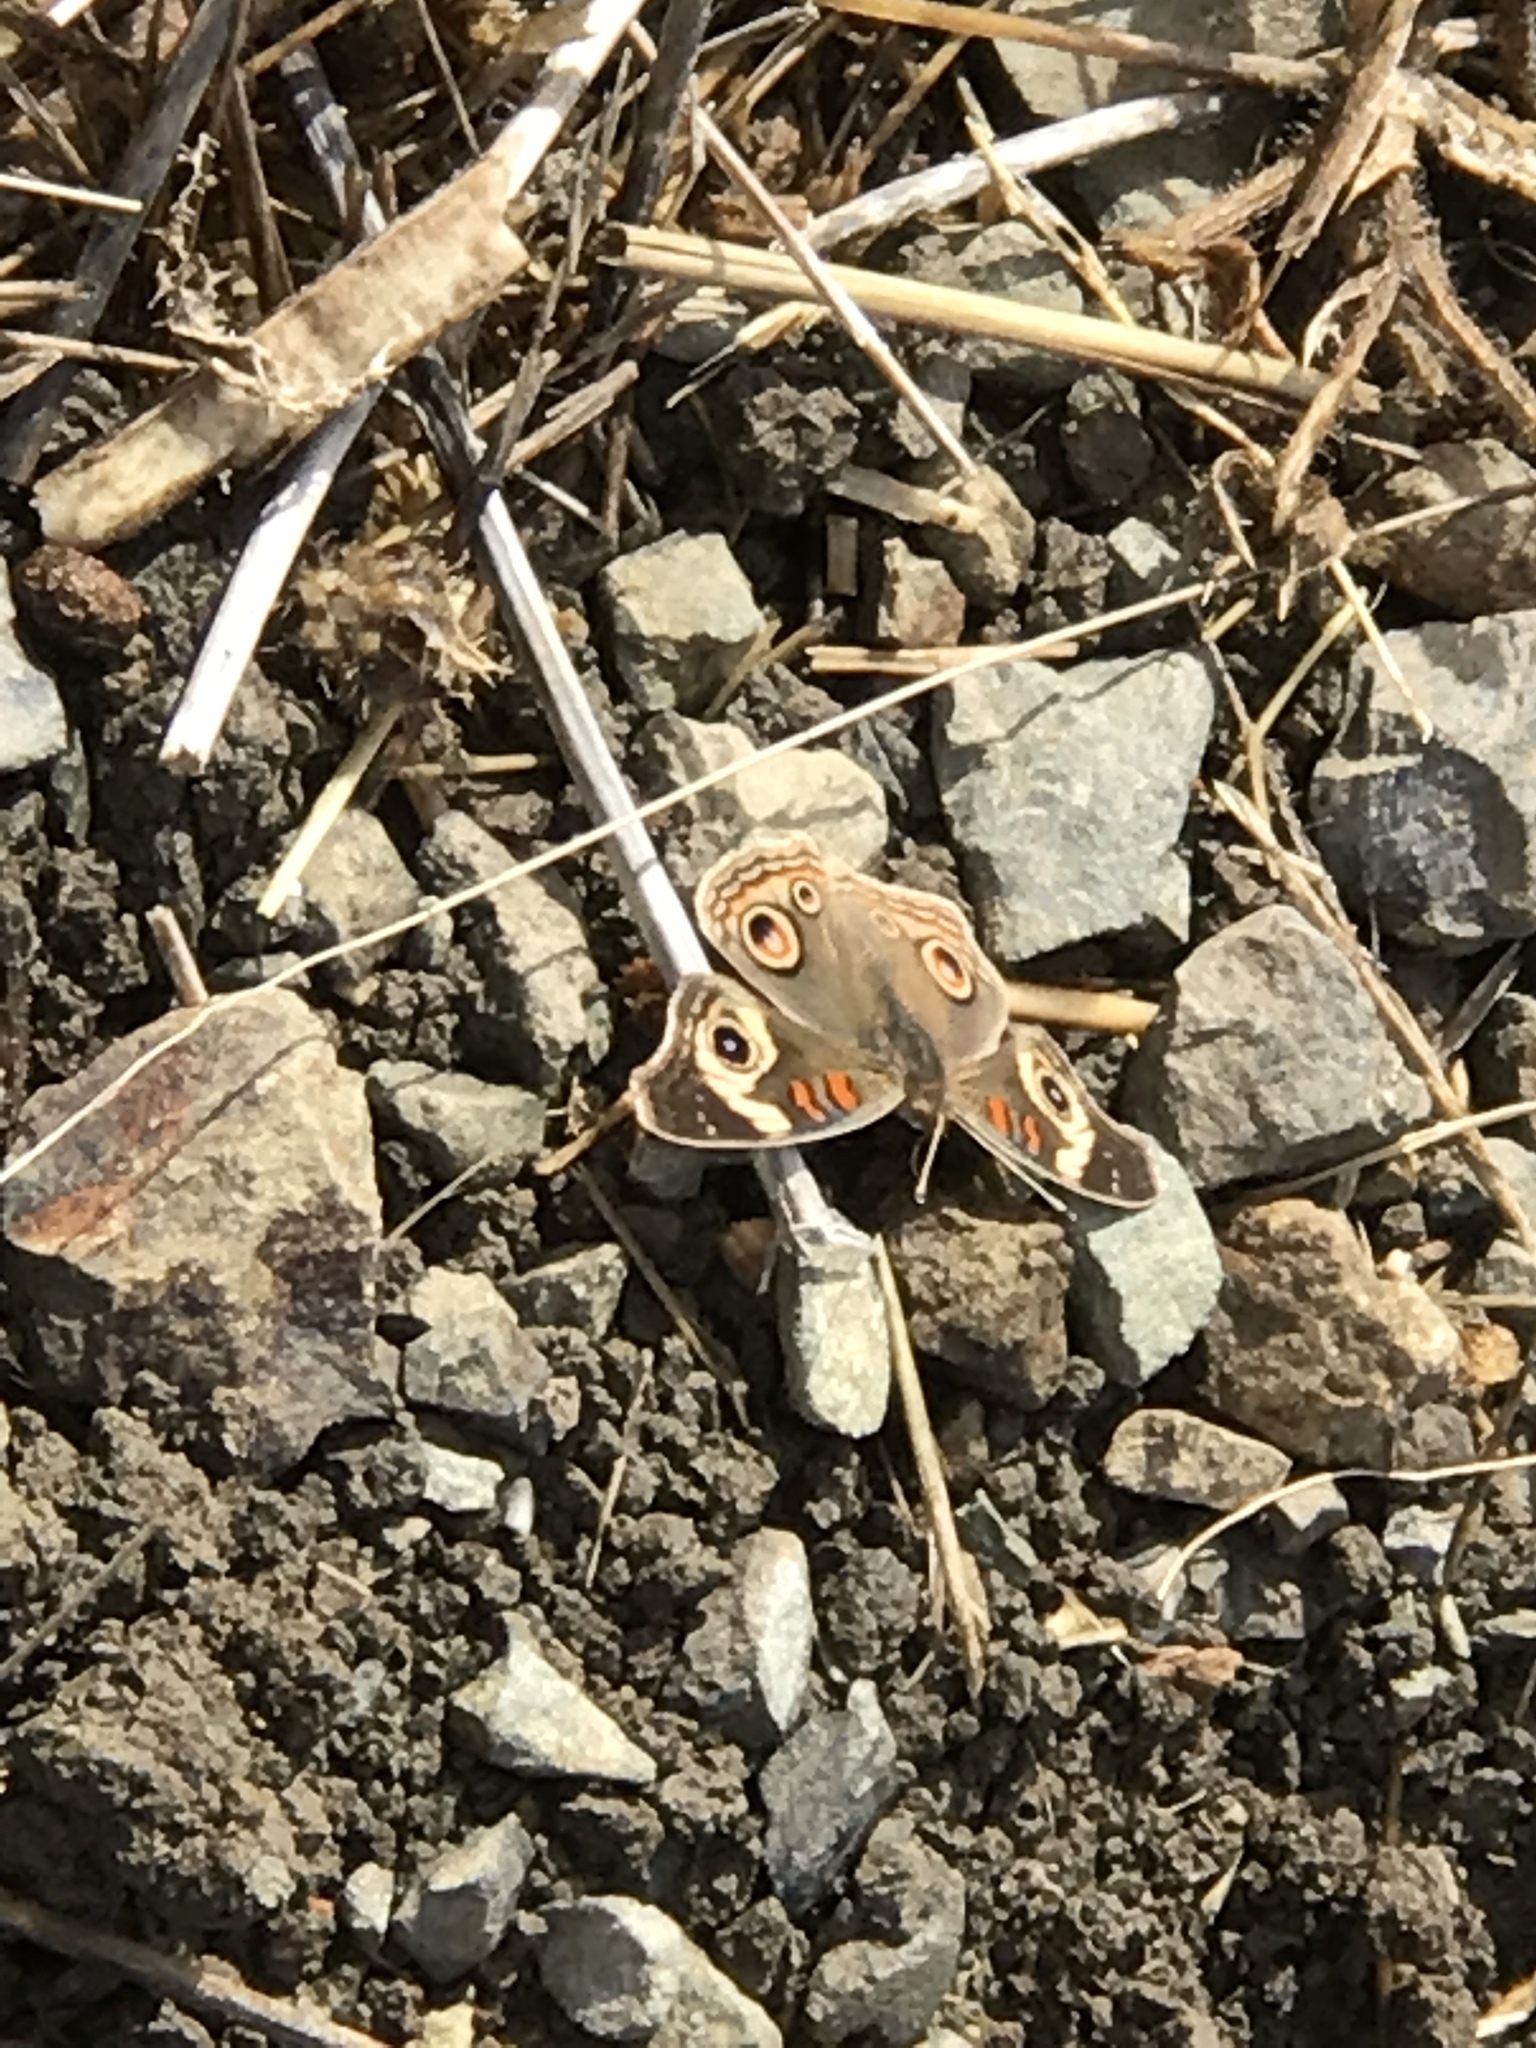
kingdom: Animalia
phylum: Arthropoda
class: Insecta
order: Lepidoptera
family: Nymphalidae
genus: Junonia
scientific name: Junonia grisea
